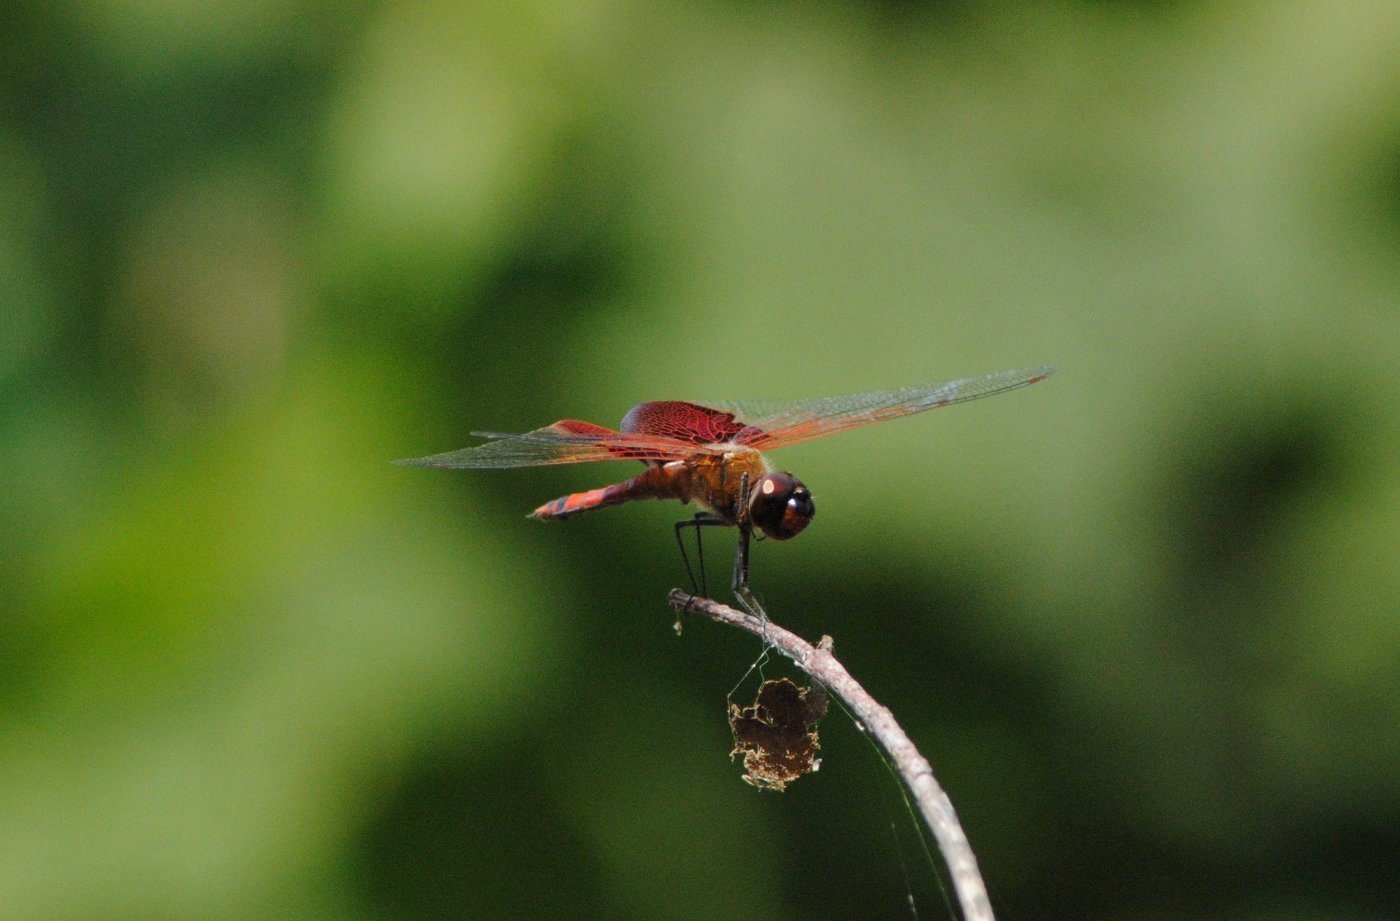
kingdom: Animalia
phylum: Arthropoda
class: Insecta
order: Odonata
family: Libellulidae
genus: Tramea
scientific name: Tramea carolina
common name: Carolina saddlebags
